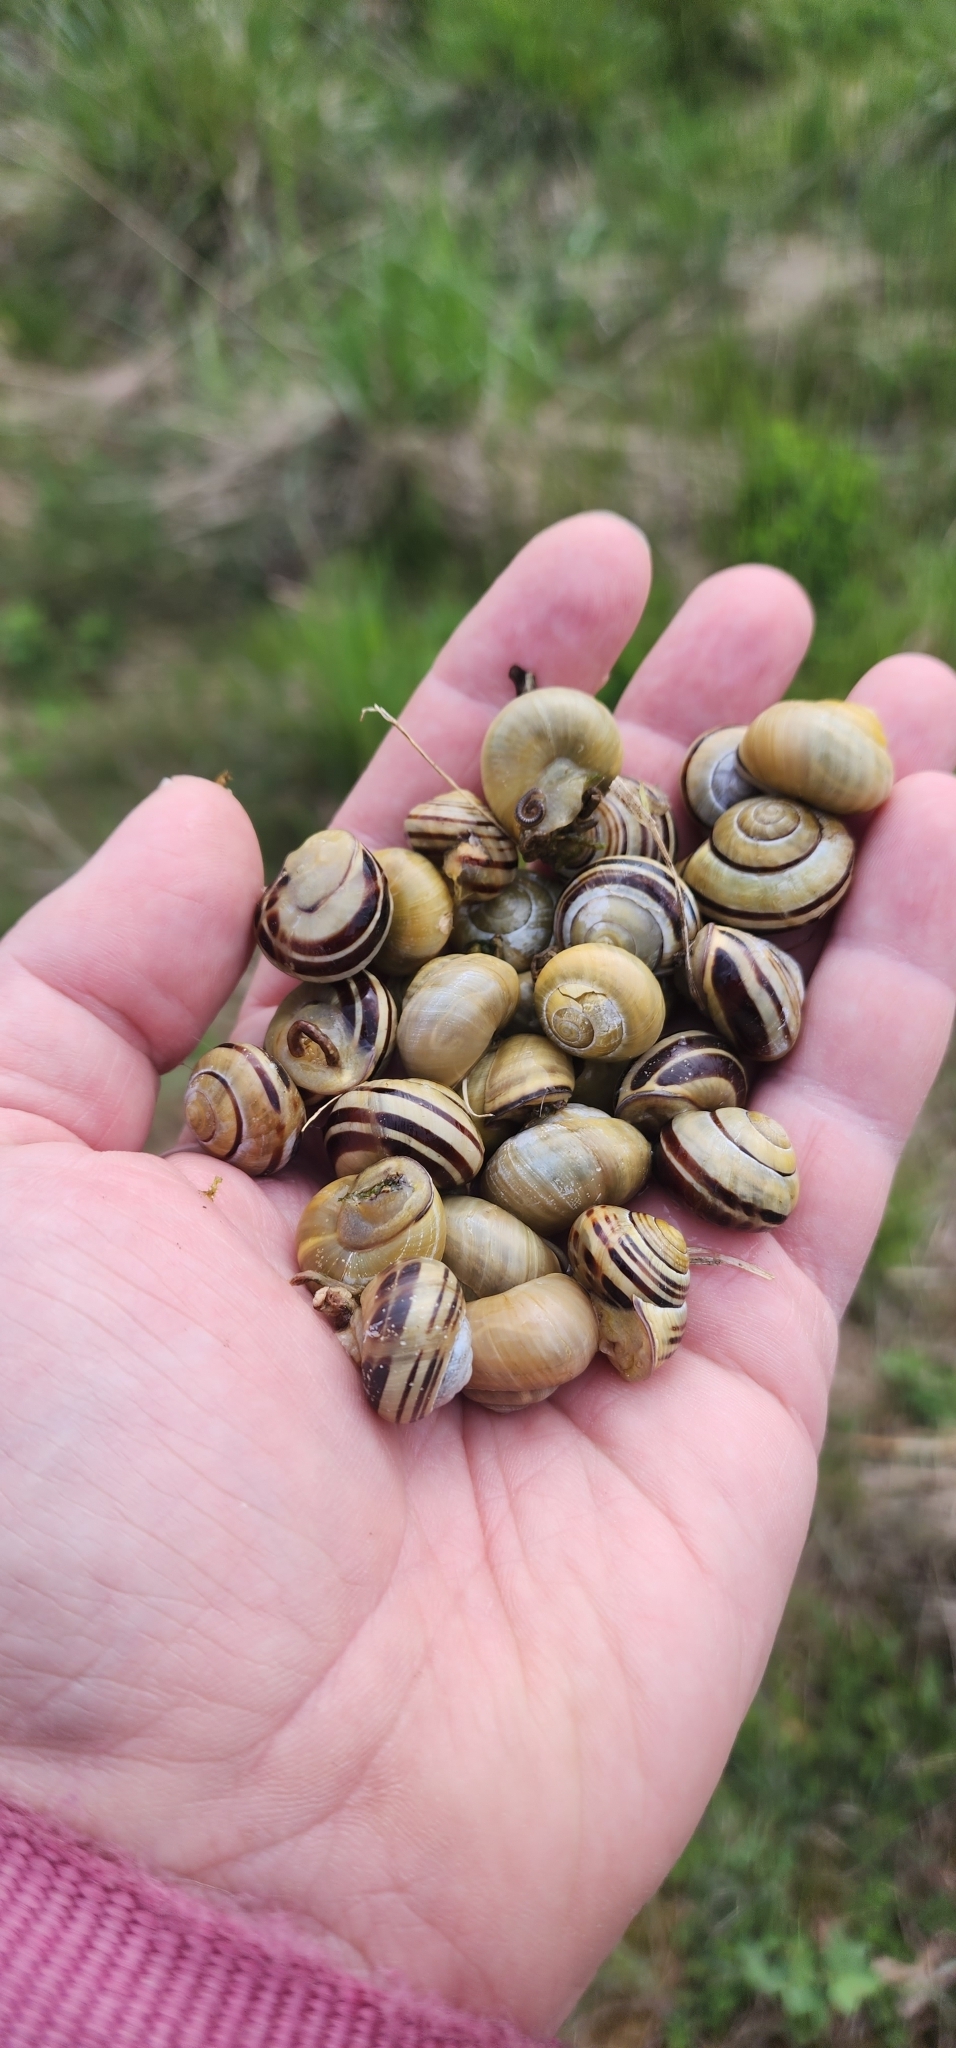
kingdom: Animalia
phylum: Mollusca
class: Gastropoda
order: Stylommatophora
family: Helicidae
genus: Cepaea
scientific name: Cepaea nemoralis
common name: Grovesnail
